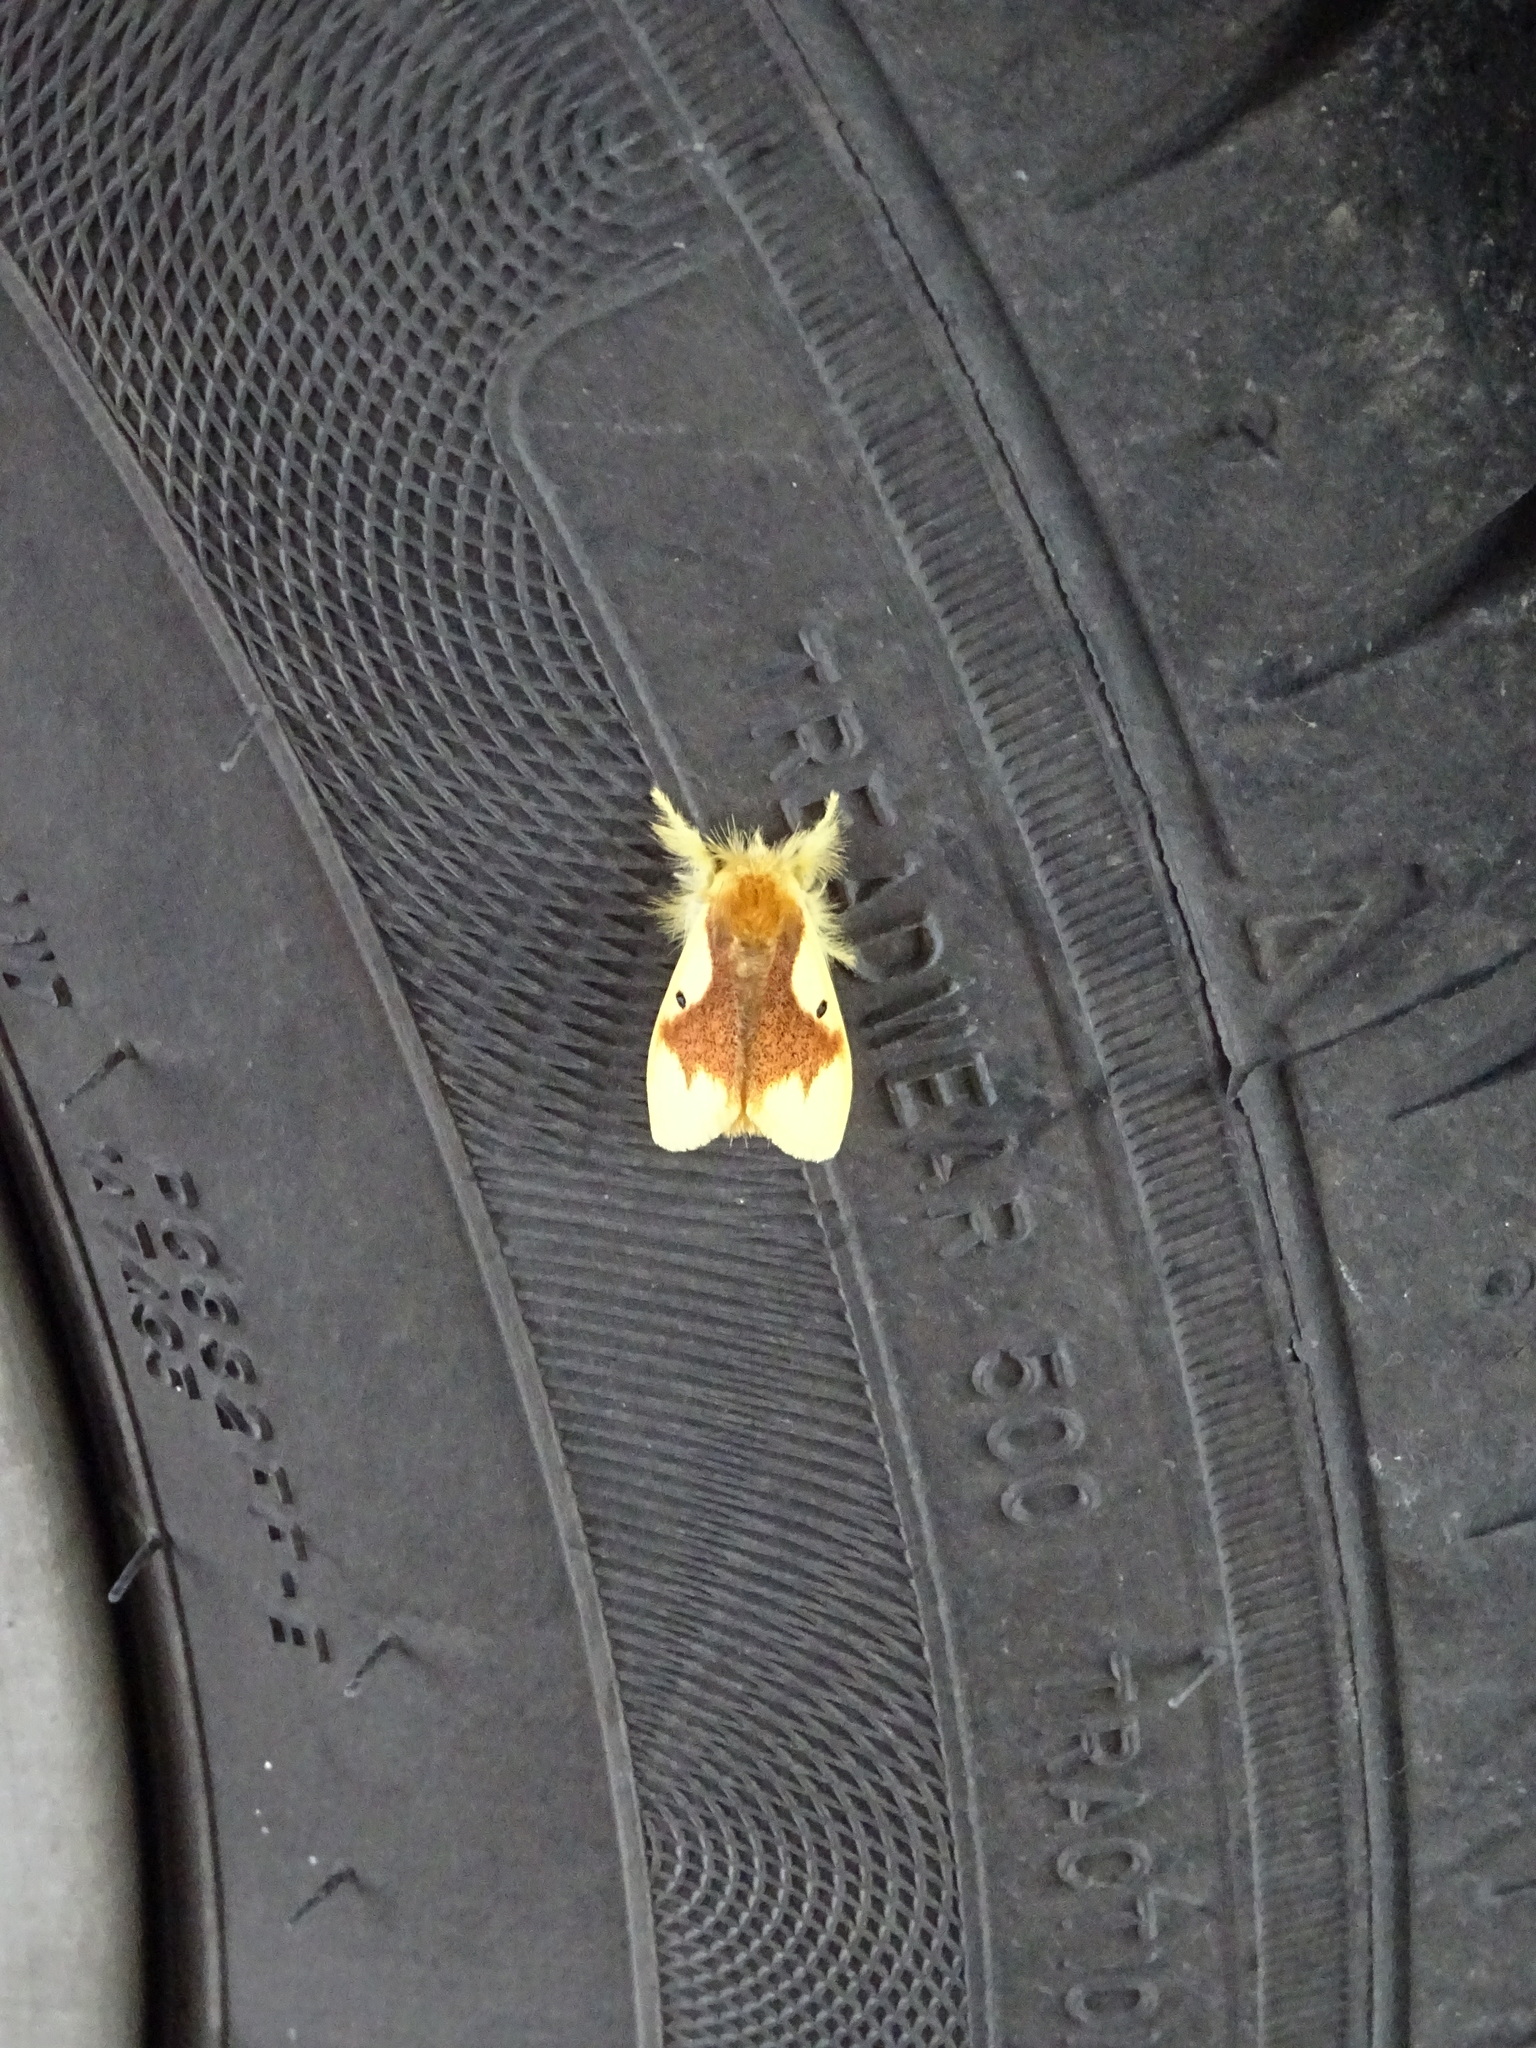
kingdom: Animalia
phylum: Arthropoda
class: Insecta
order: Lepidoptera
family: Erebidae
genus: Nygmia
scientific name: Nygmia solitaria
